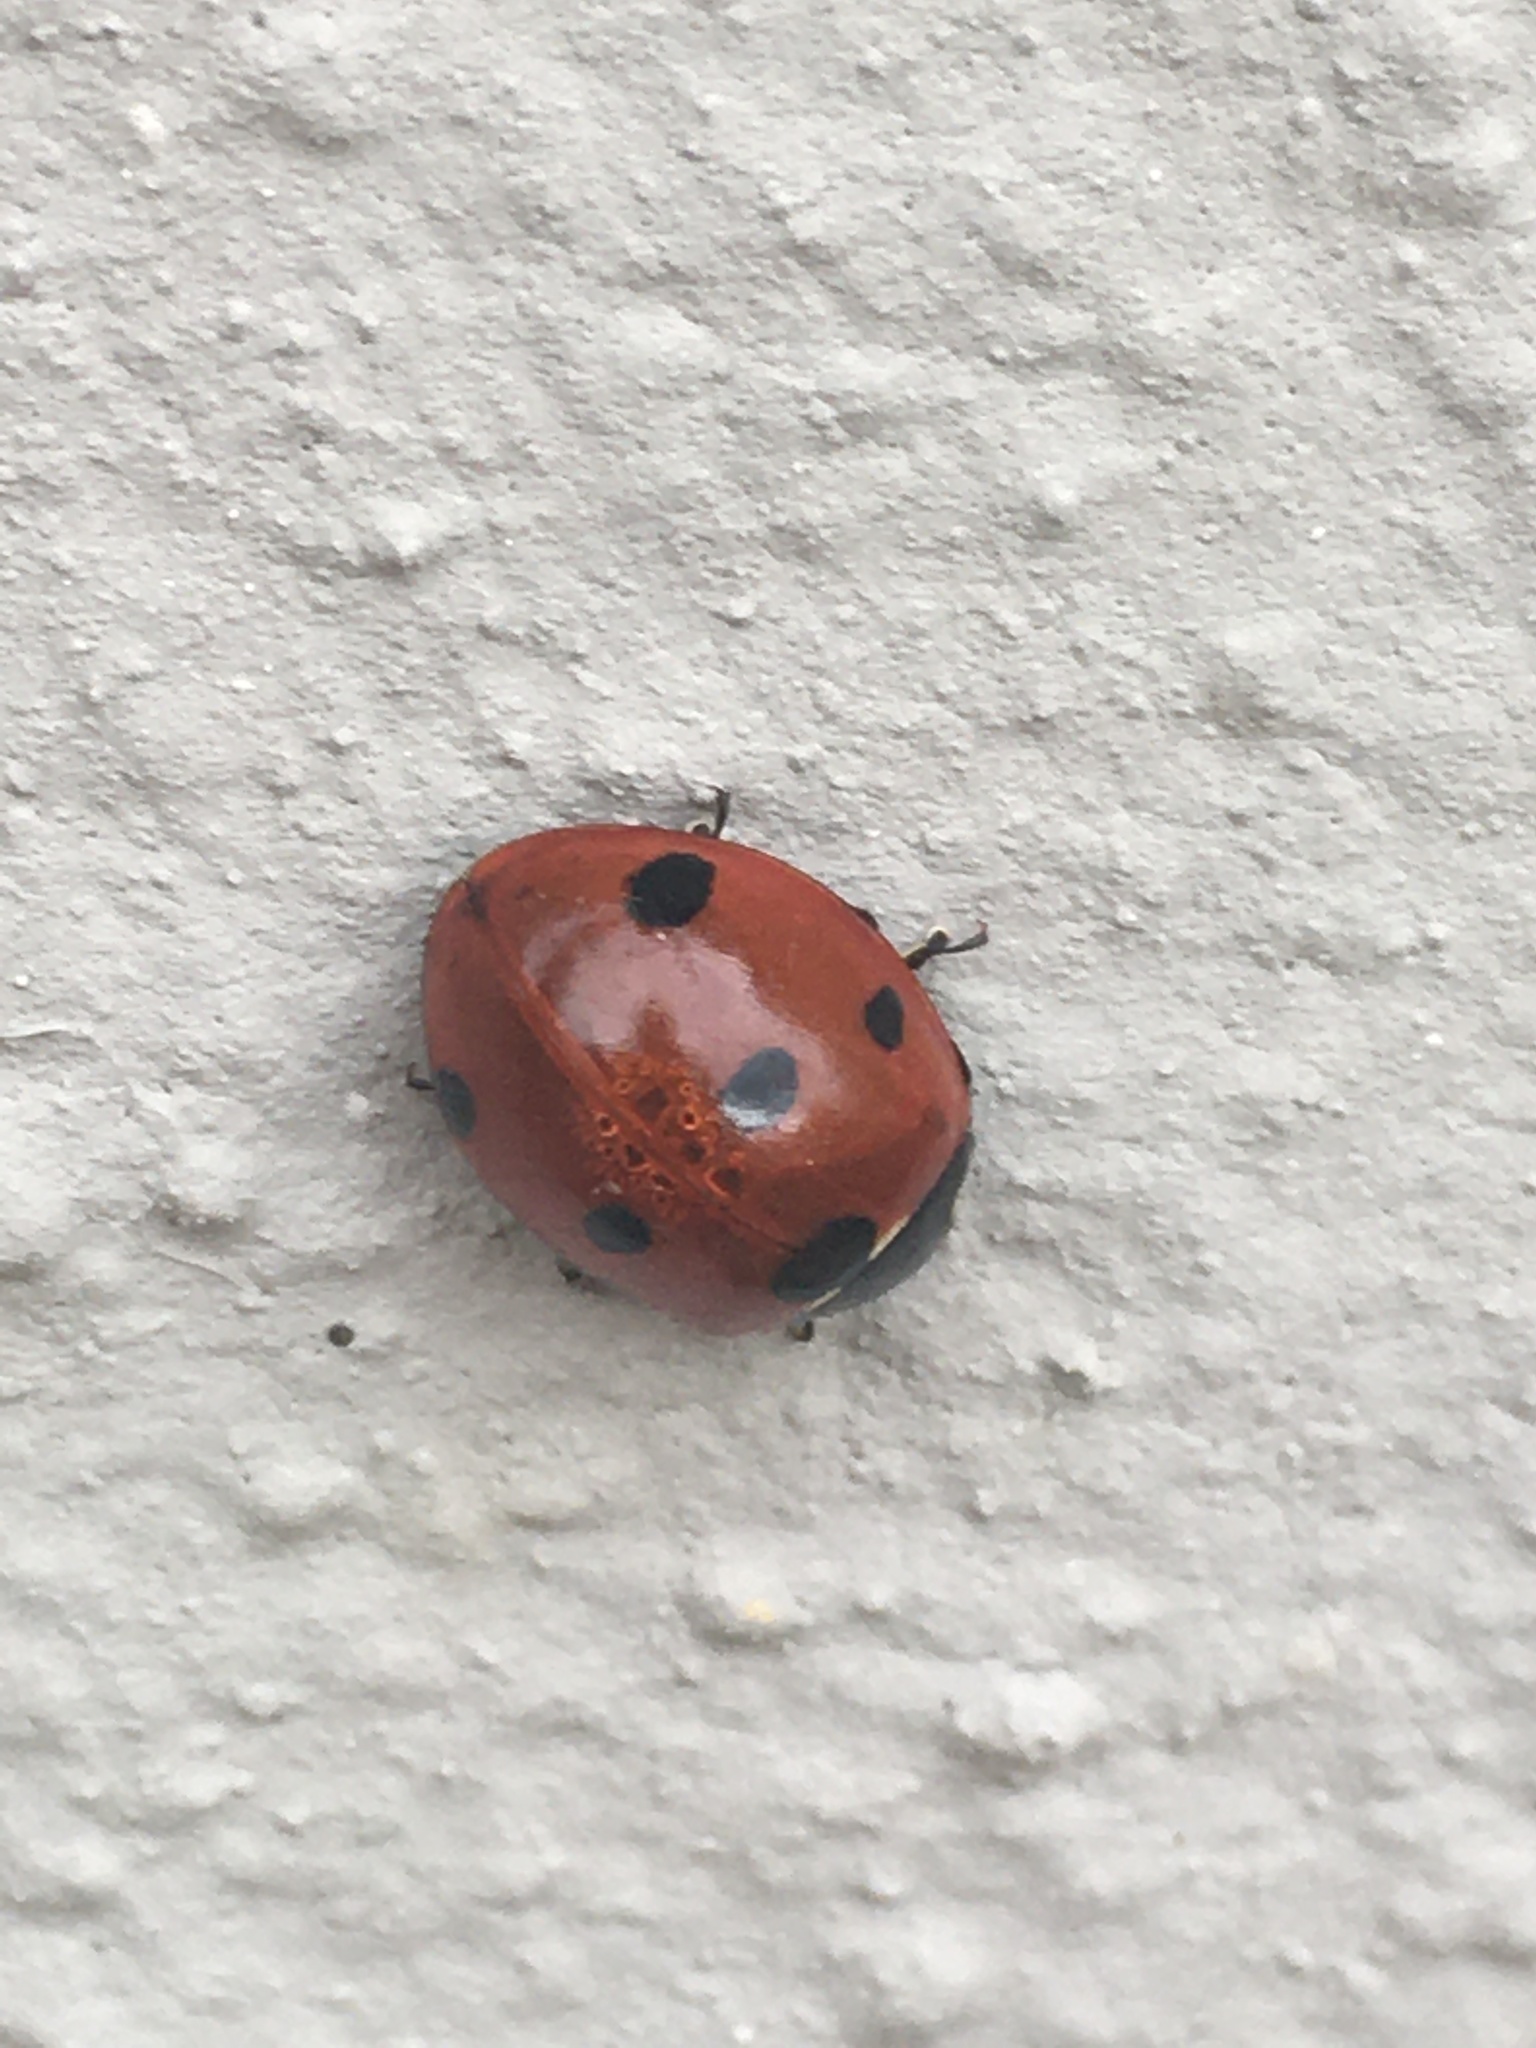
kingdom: Animalia
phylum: Arthropoda
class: Insecta
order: Coleoptera
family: Coccinellidae
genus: Coccinella
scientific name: Coccinella septempunctata
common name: Sevenspotted lady beetle
